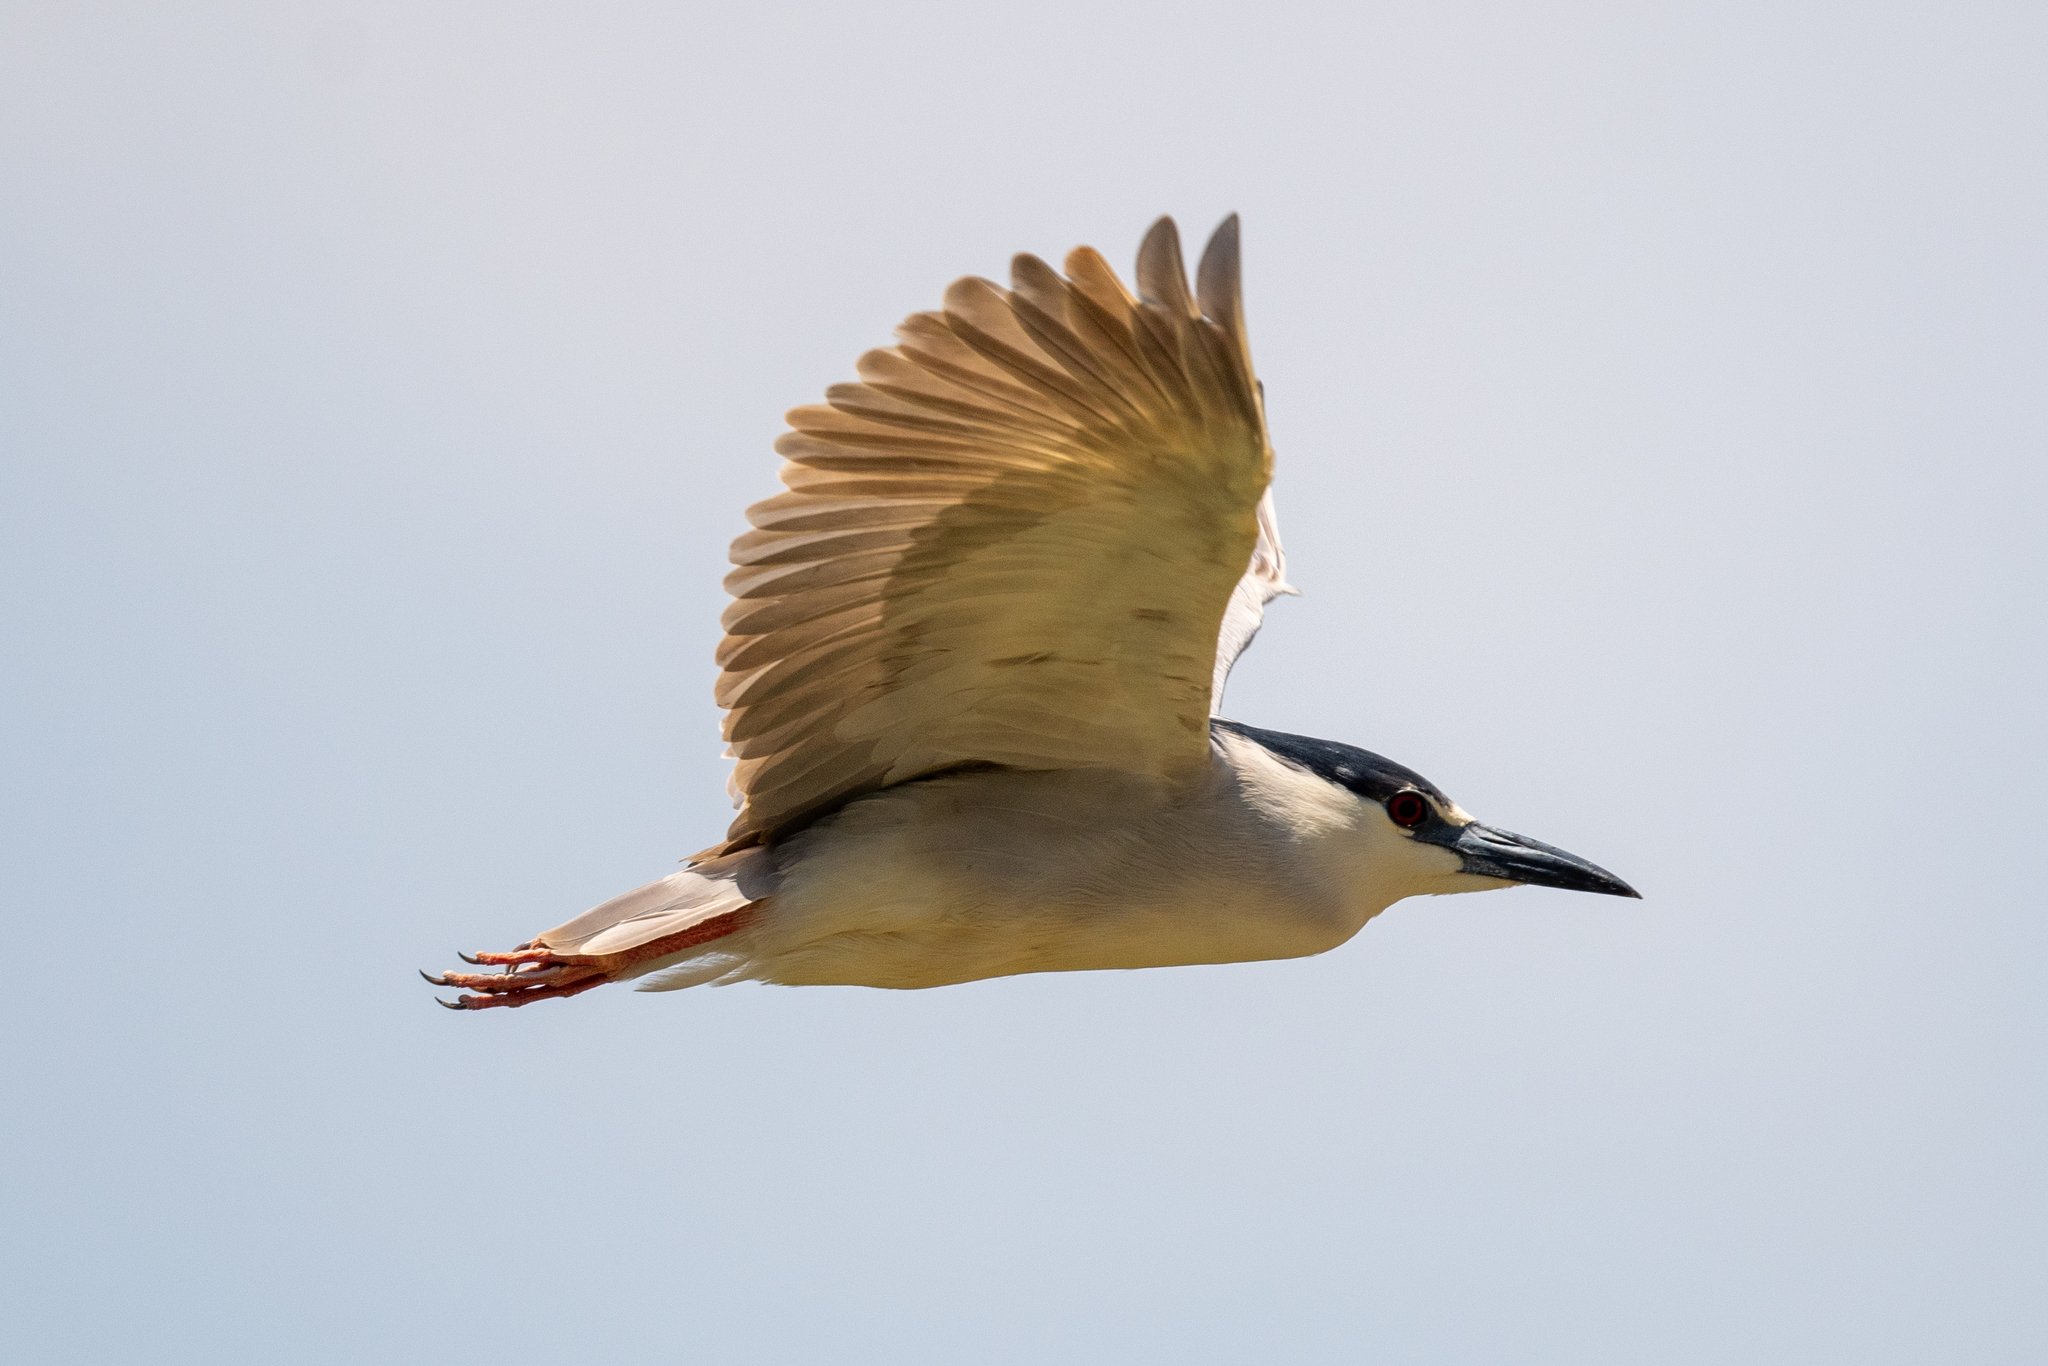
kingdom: Animalia
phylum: Chordata
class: Aves
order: Pelecaniformes
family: Ardeidae
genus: Nycticorax
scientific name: Nycticorax nycticorax
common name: Black-crowned night heron
